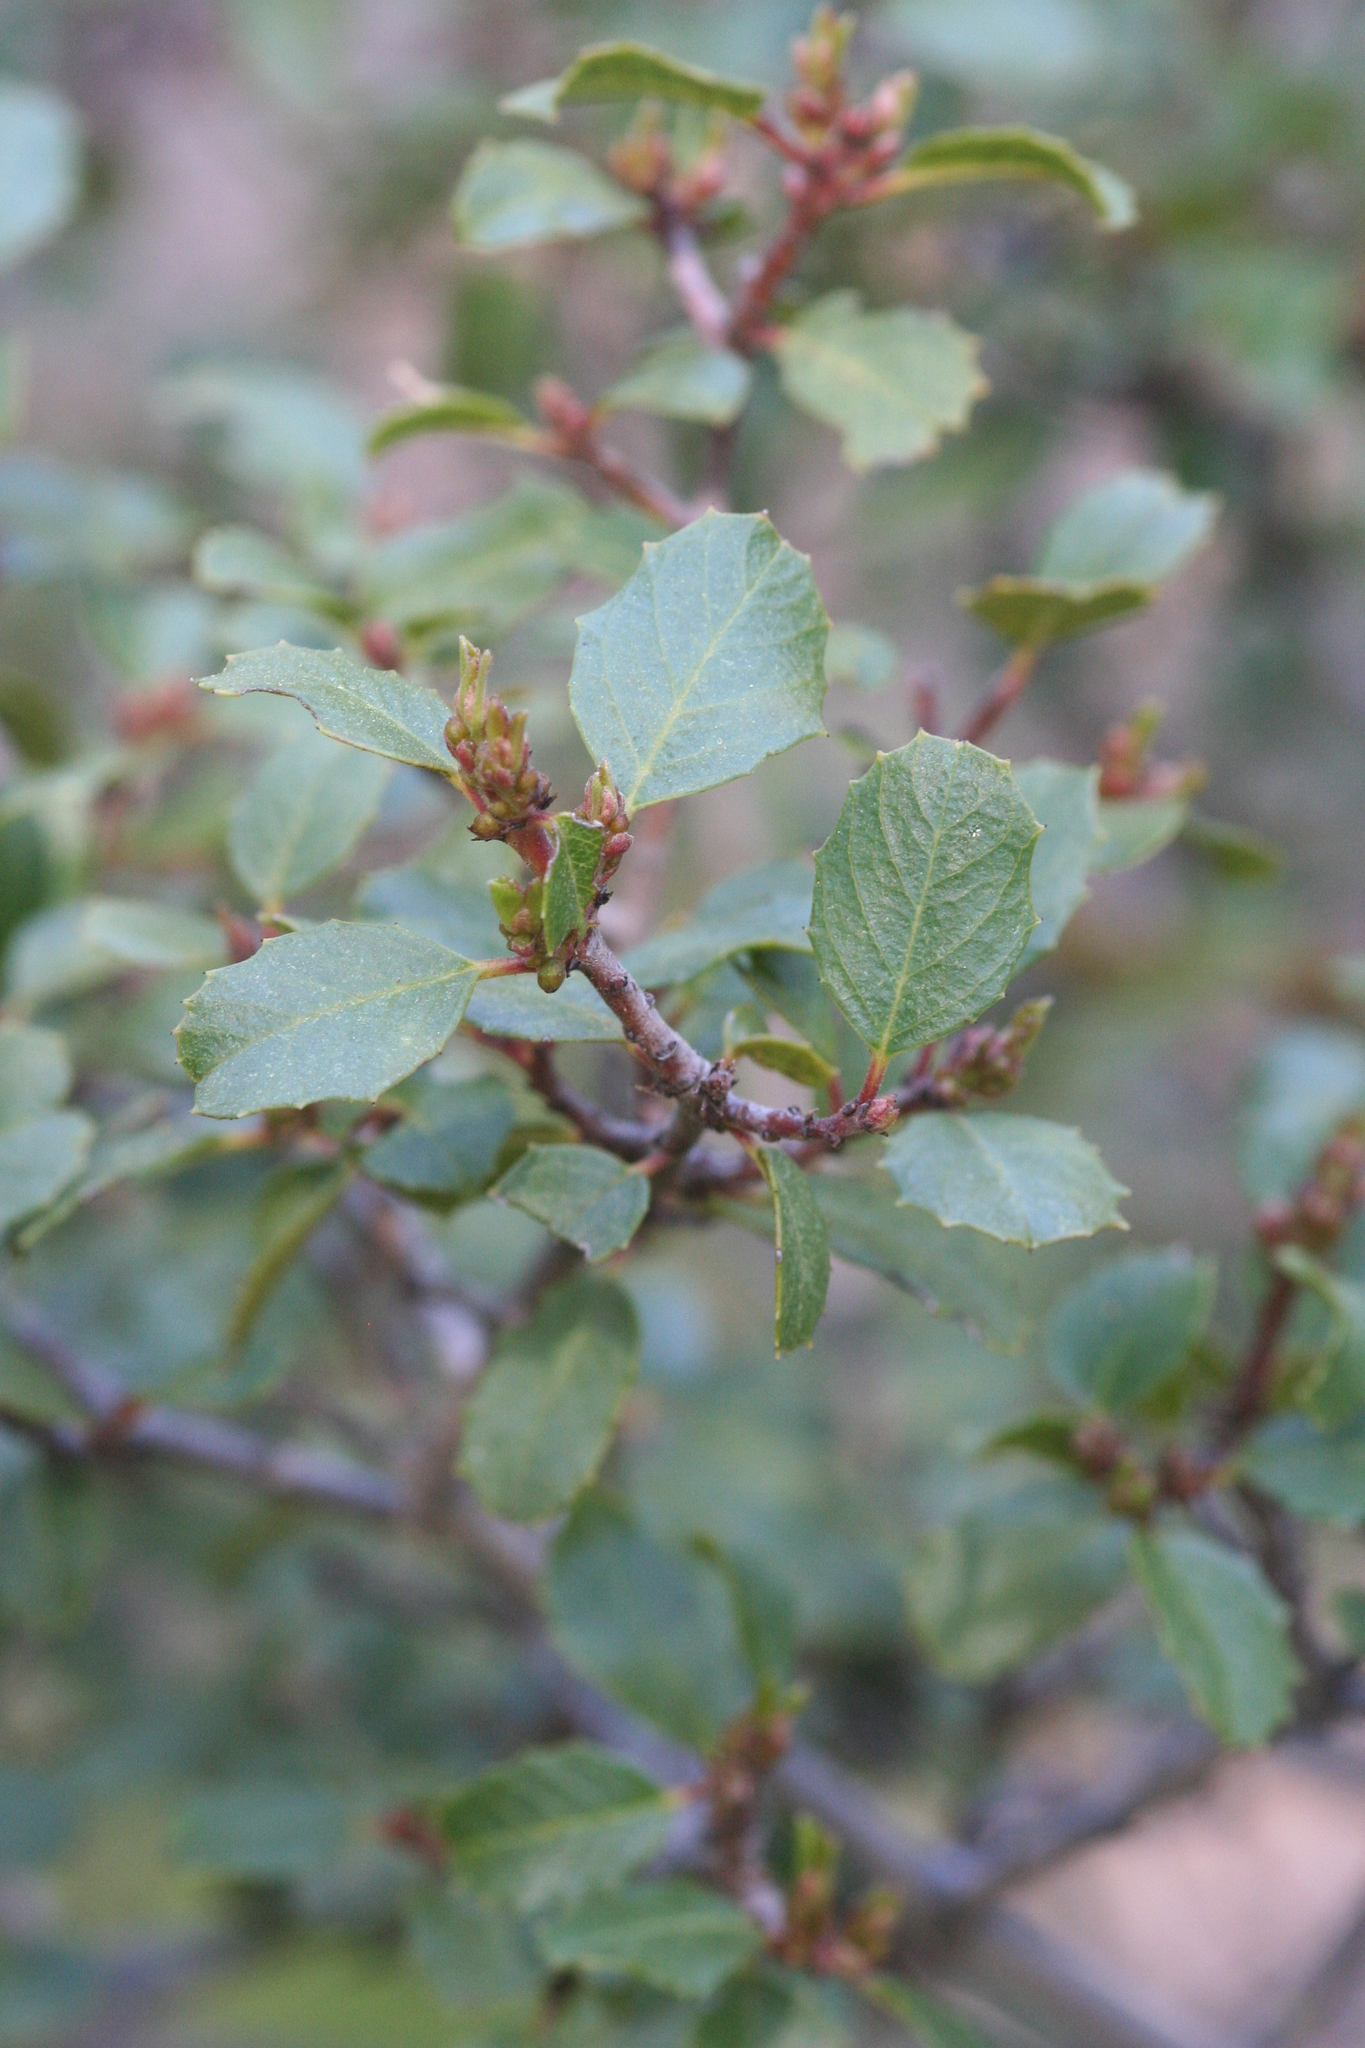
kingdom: Plantae
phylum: Tracheophyta
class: Magnoliopsida
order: Rosales
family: Rhamnaceae
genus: Endotropis
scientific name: Endotropis crocea
